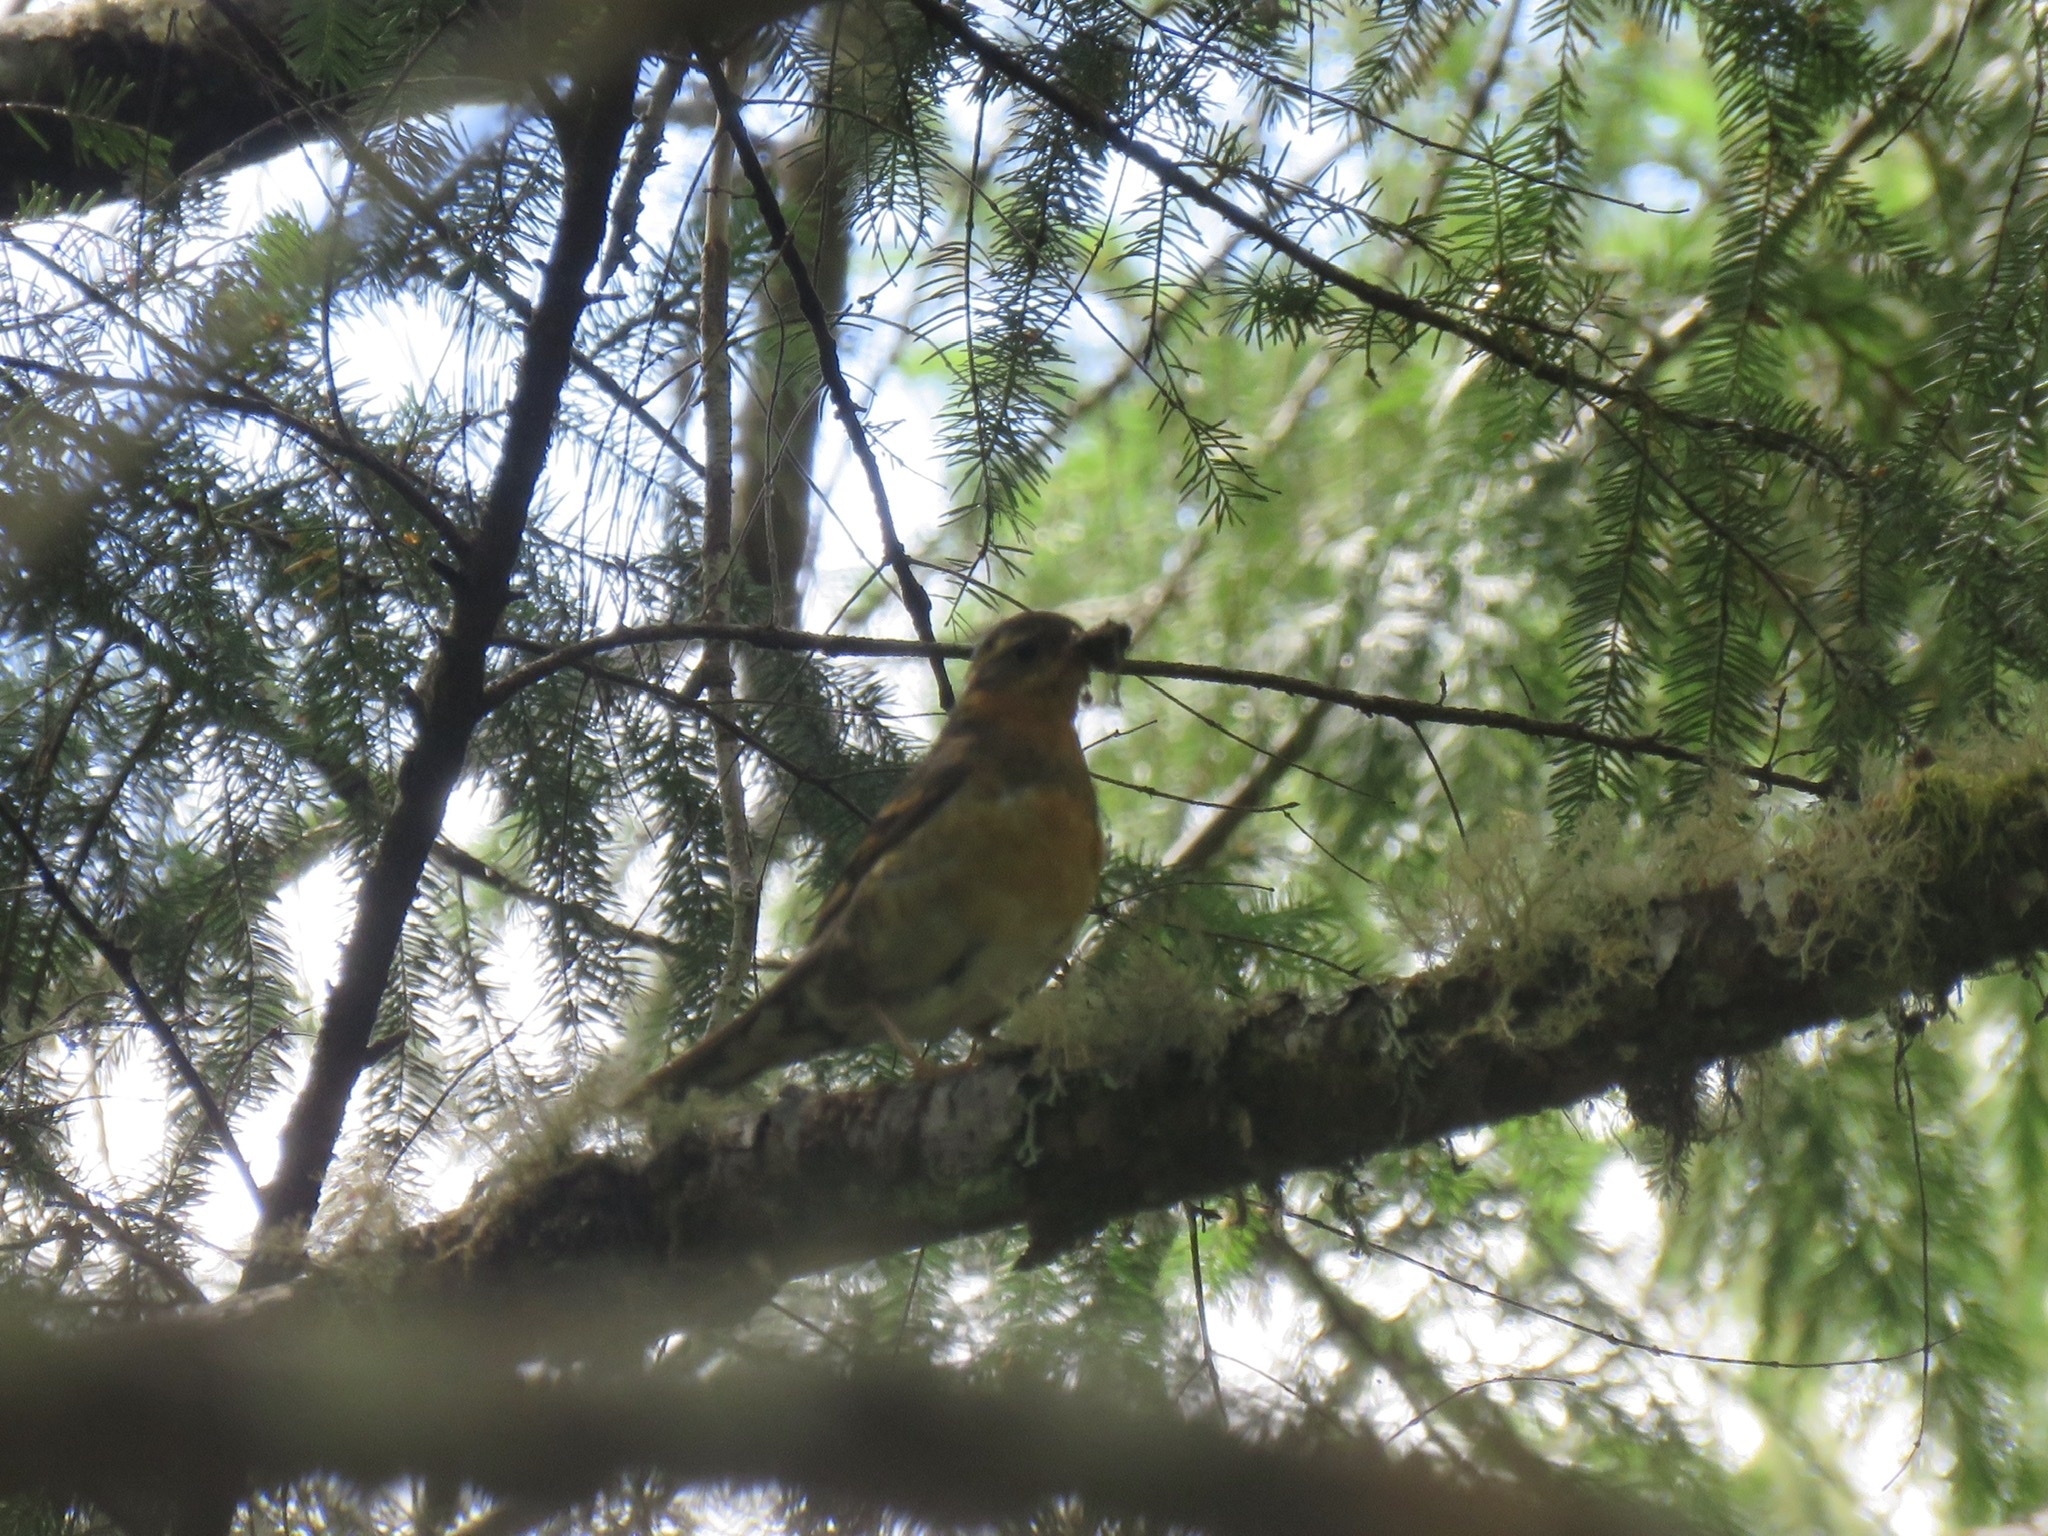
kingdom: Animalia
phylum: Chordata
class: Aves
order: Passeriformes
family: Turdidae
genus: Ixoreus
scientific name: Ixoreus naevius
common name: Varied thrush
